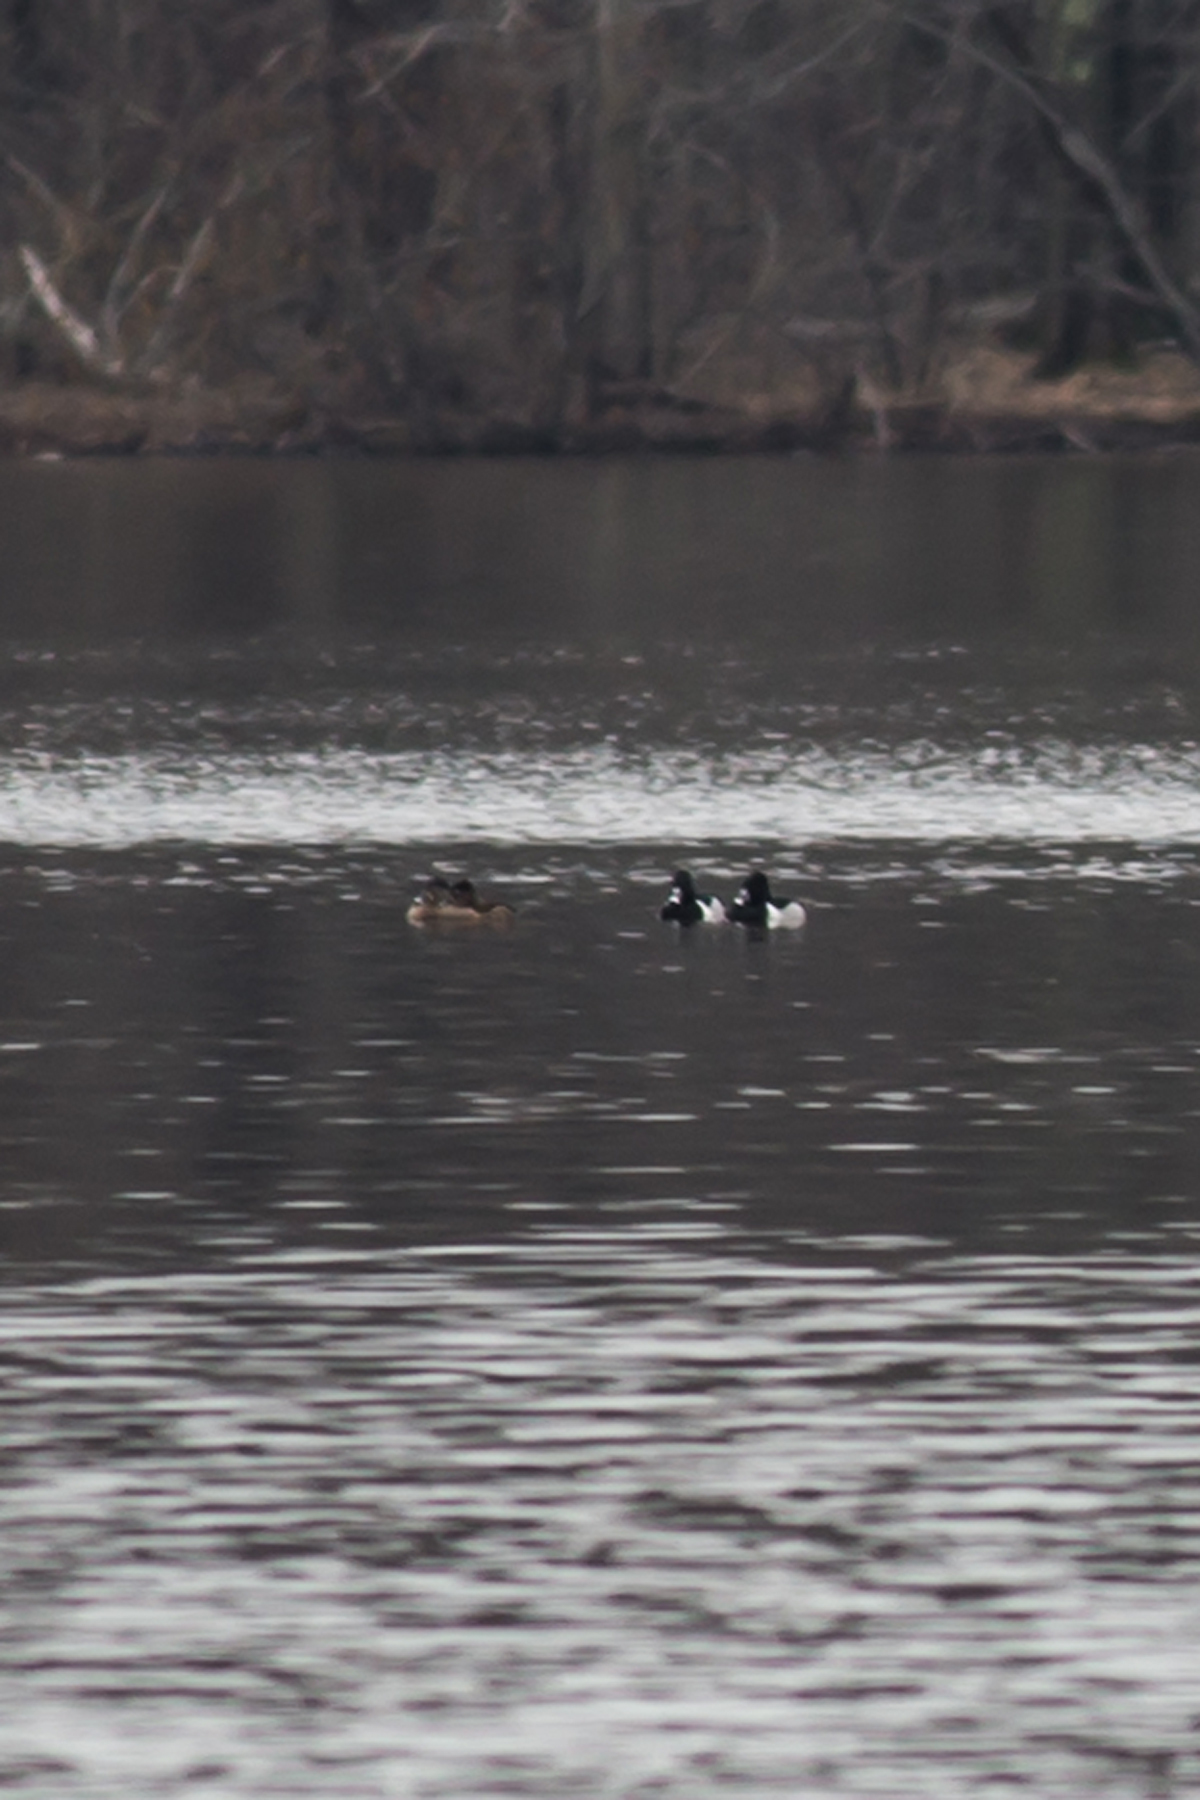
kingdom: Animalia
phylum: Chordata
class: Aves
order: Anseriformes
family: Anatidae
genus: Aythya
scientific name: Aythya collaris
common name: Ring-necked duck
